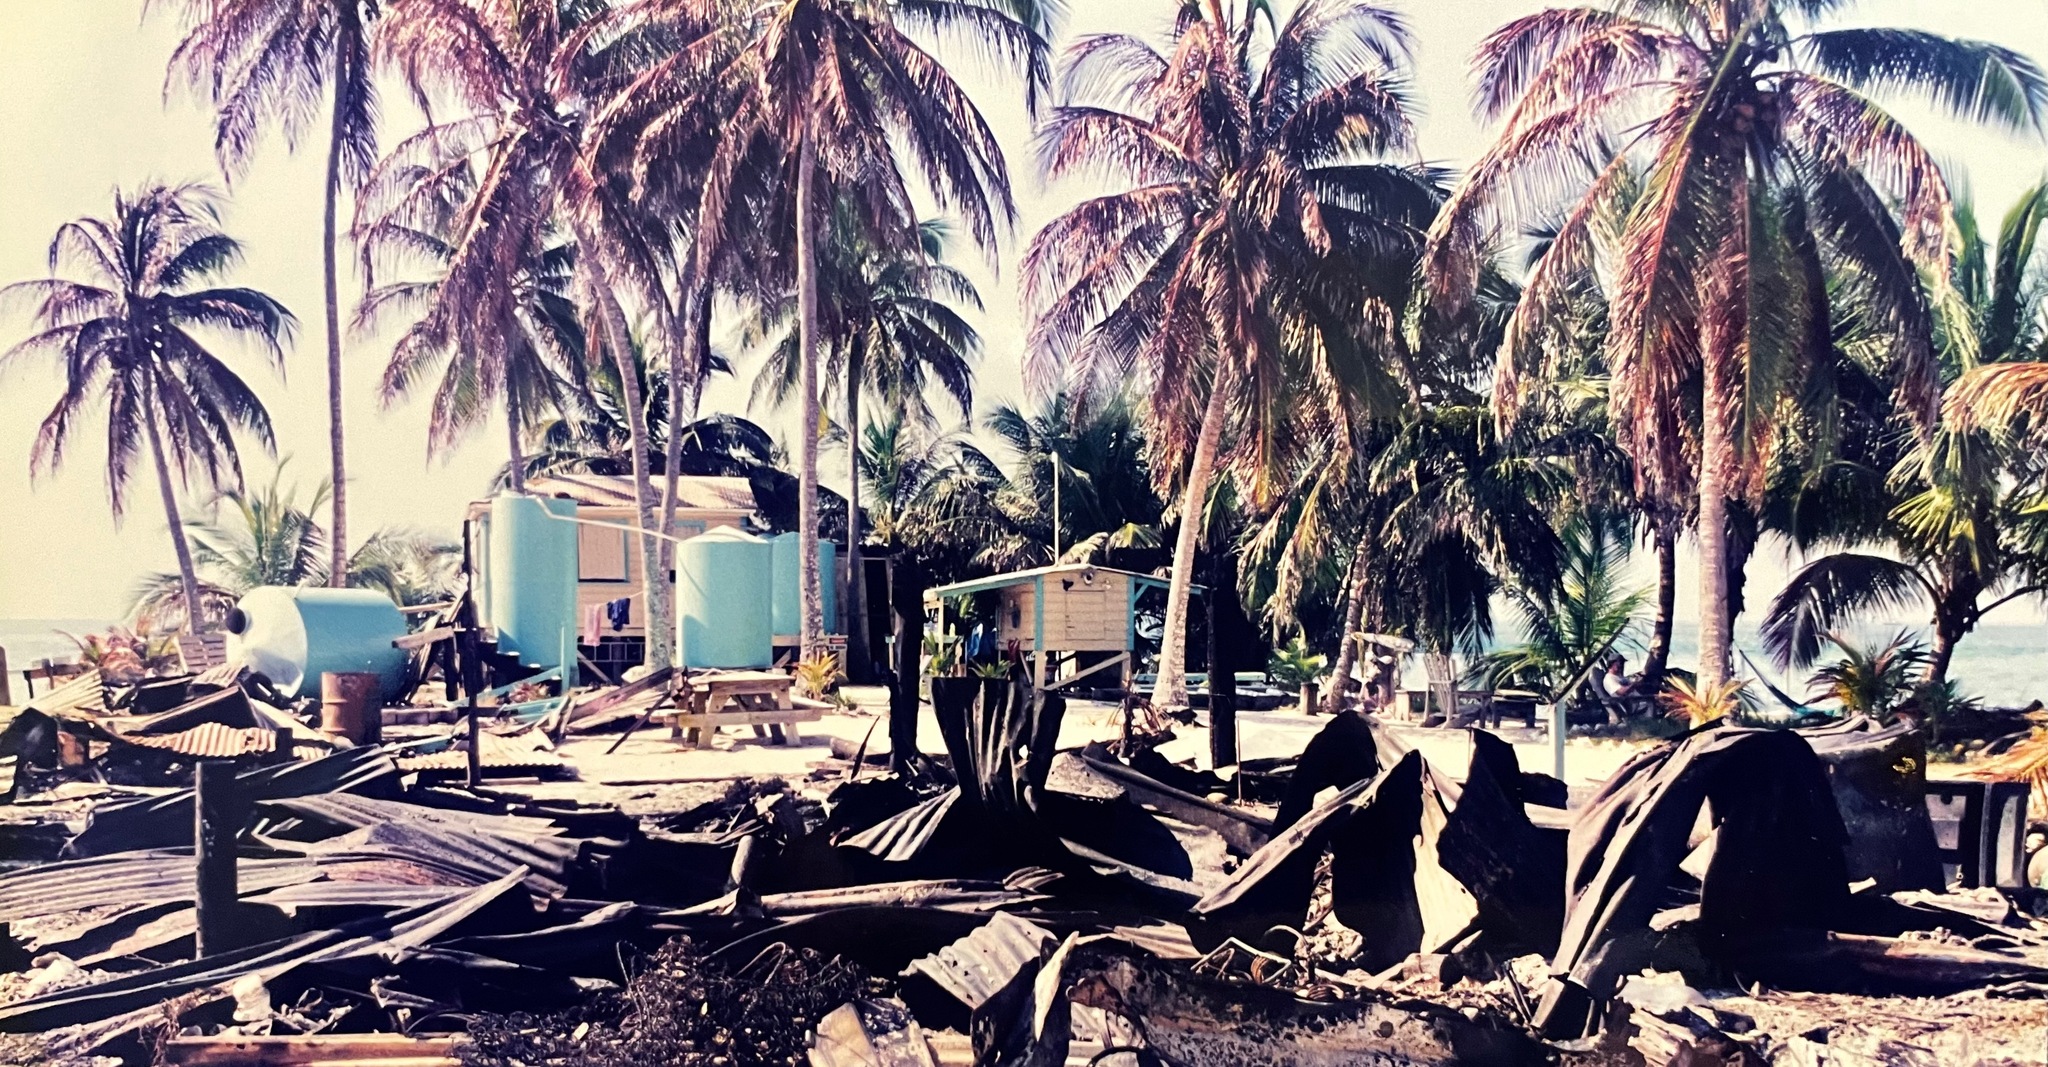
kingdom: Plantae
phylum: Tracheophyta
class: Liliopsida
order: Arecales
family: Arecaceae
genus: Cocos
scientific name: Cocos nucifera
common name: Coconut palm
